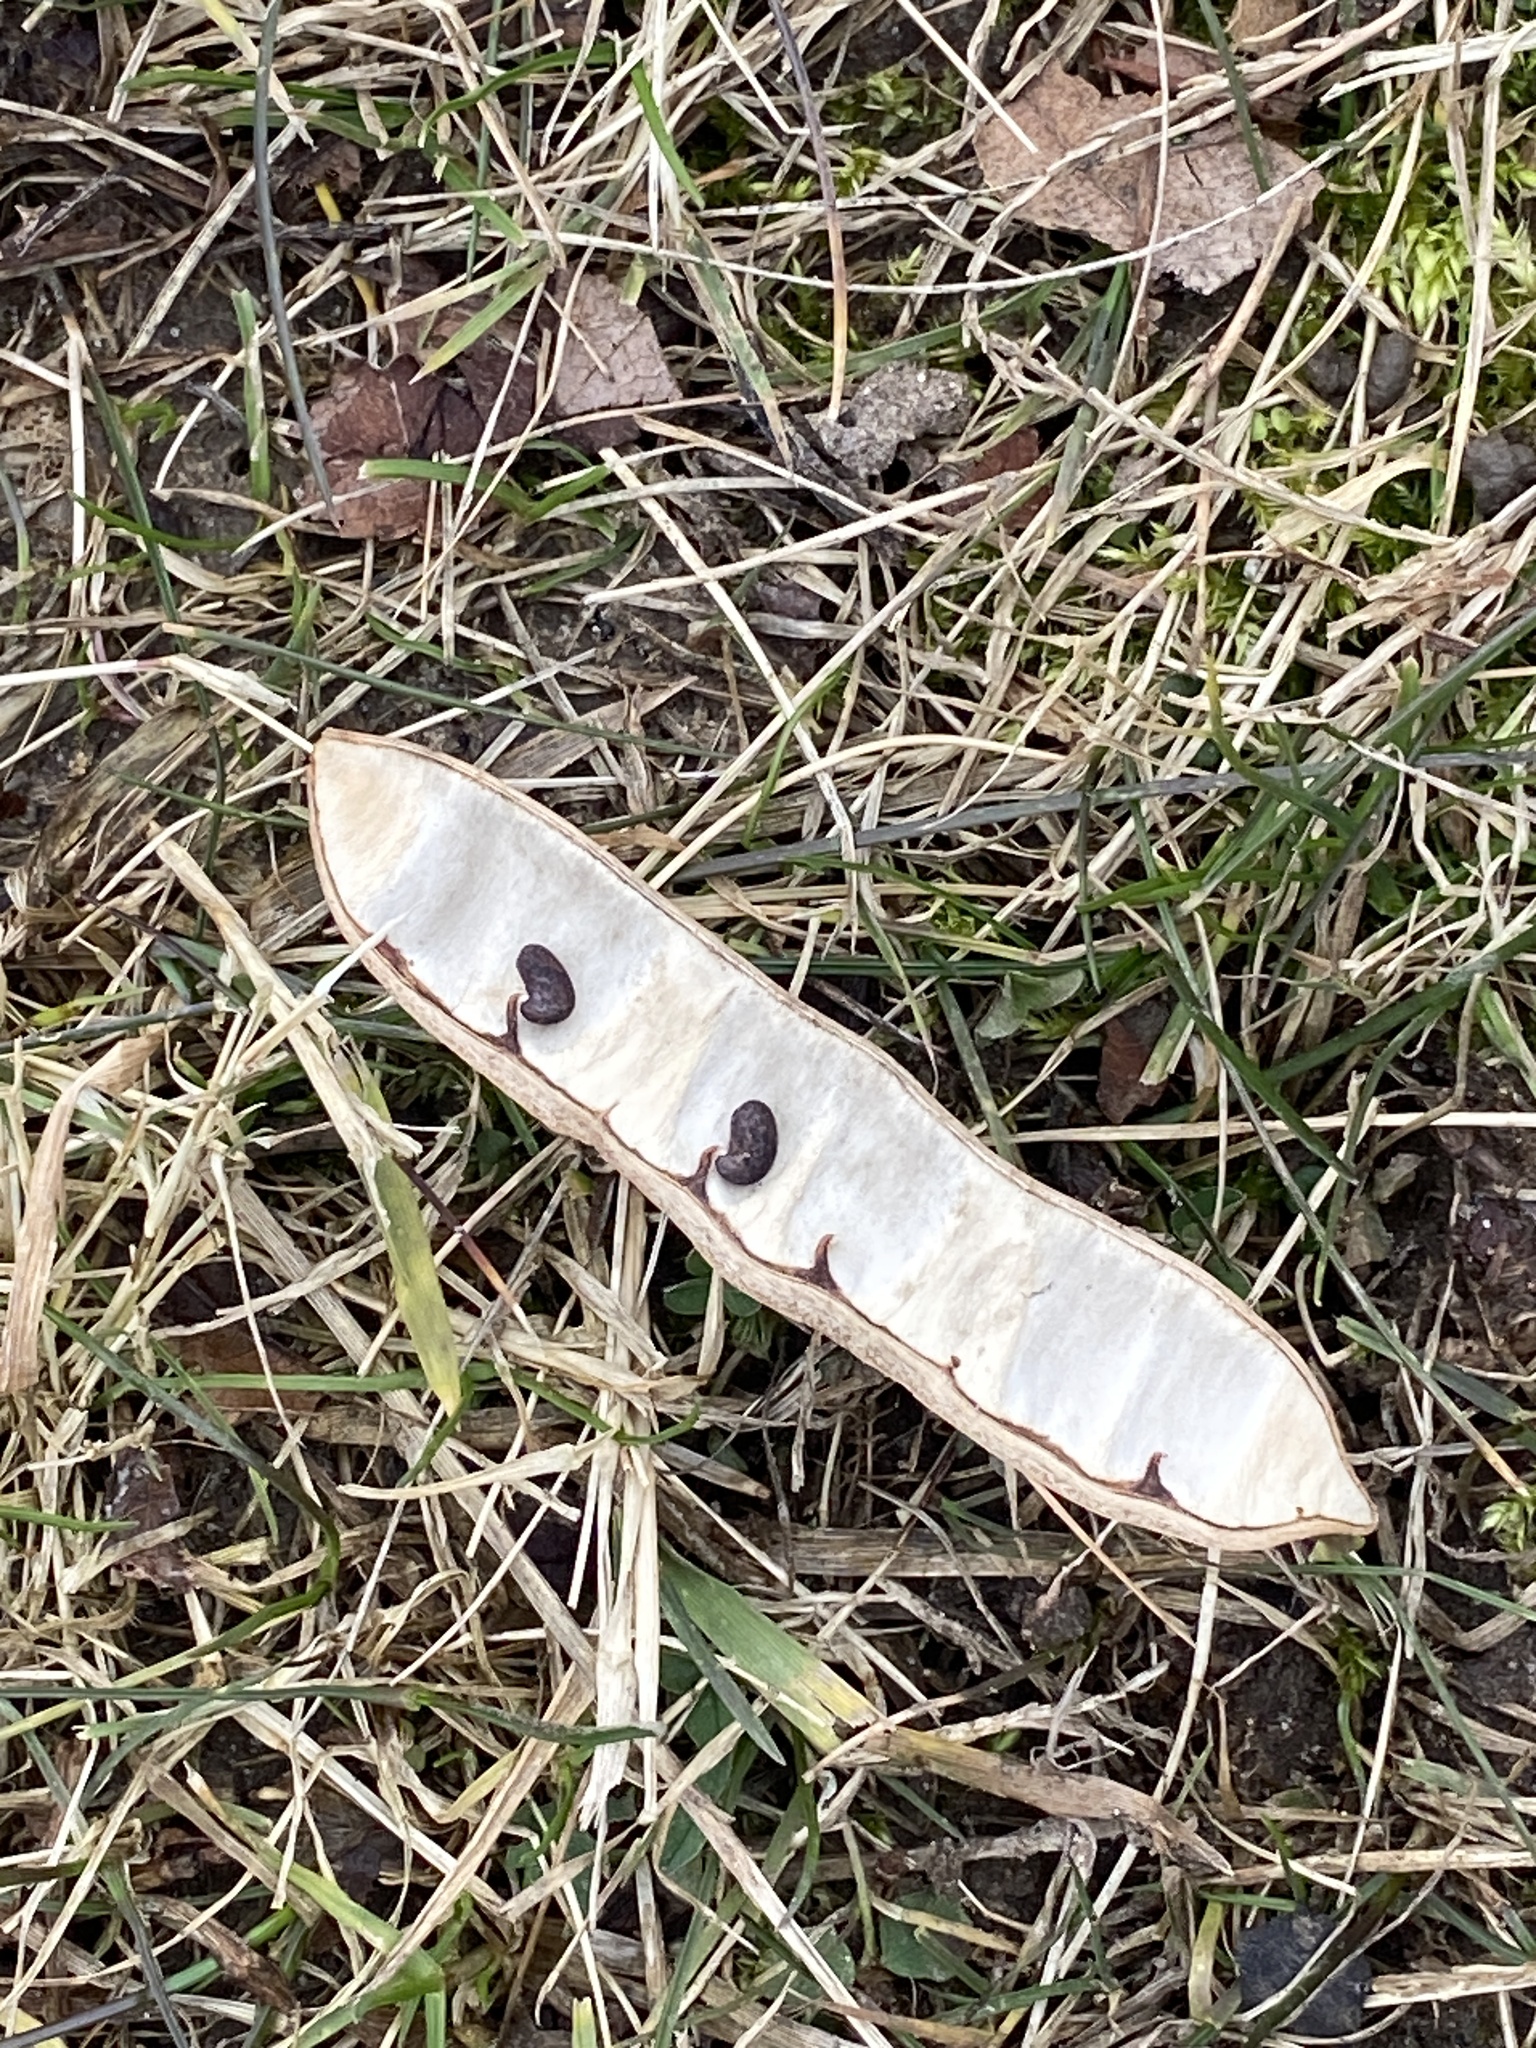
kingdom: Plantae
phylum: Tracheophyta
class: Magnoliopsida
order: Fabales
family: Fabaceae
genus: Robinia
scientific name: Robinia pseudoacacia
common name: Black locust
